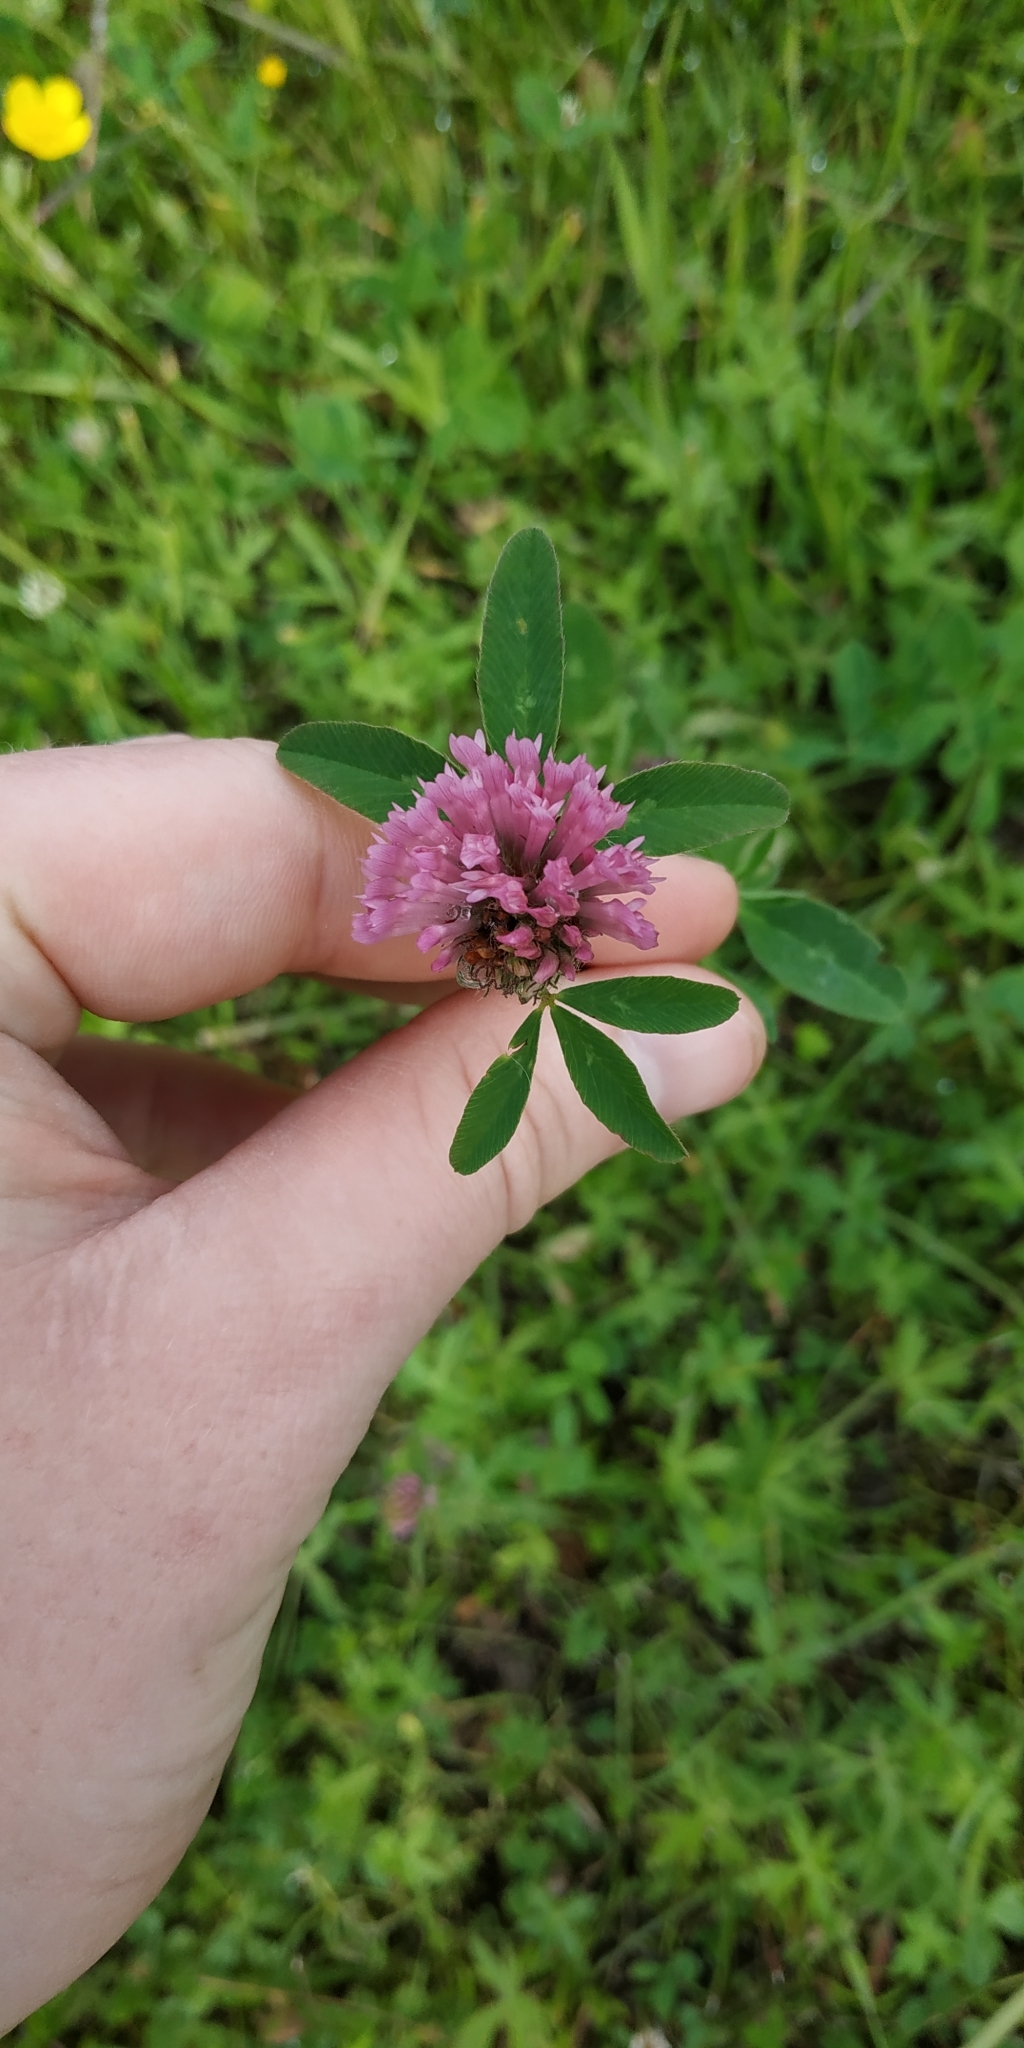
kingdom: Plantae
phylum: Tracheophyta
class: Magnoliopsida
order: Fabales
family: Fabaceae
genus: Trifolium
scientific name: Trifolium pratense
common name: Red clover
